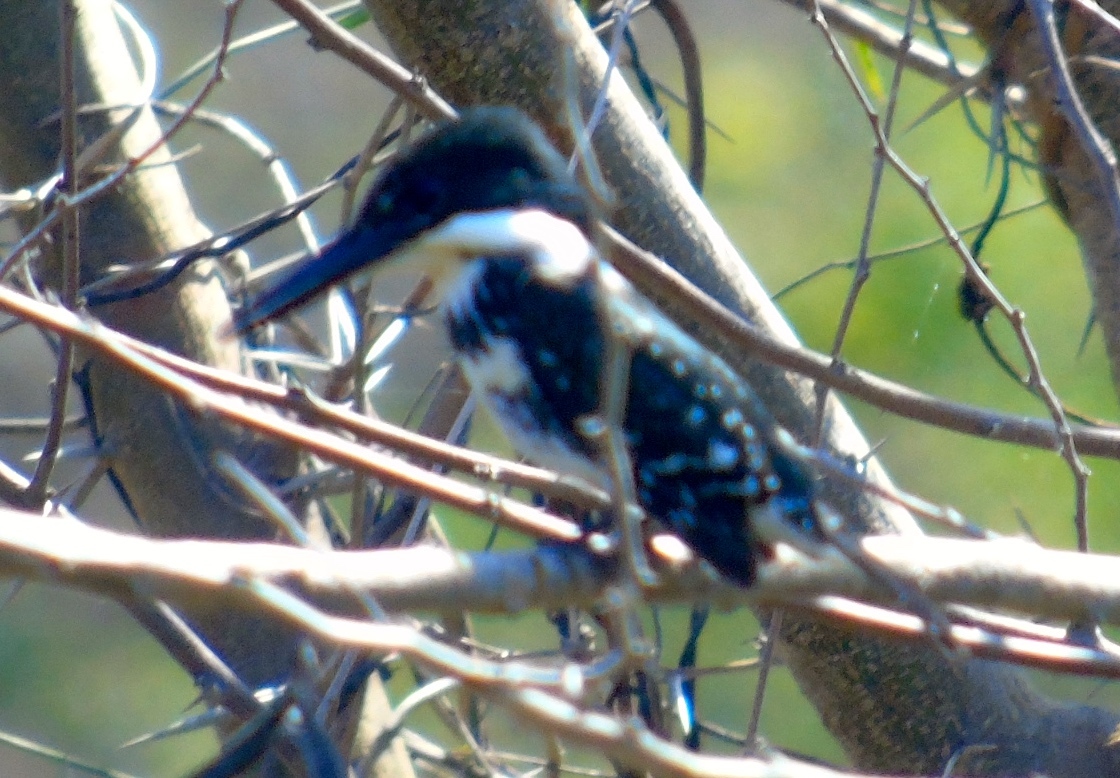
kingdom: Animalia
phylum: Chordata
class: Aves
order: Coraciiformes
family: Alcedinidae
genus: Chloroceryle
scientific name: Chloroceryle americana
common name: Green kingfisher
